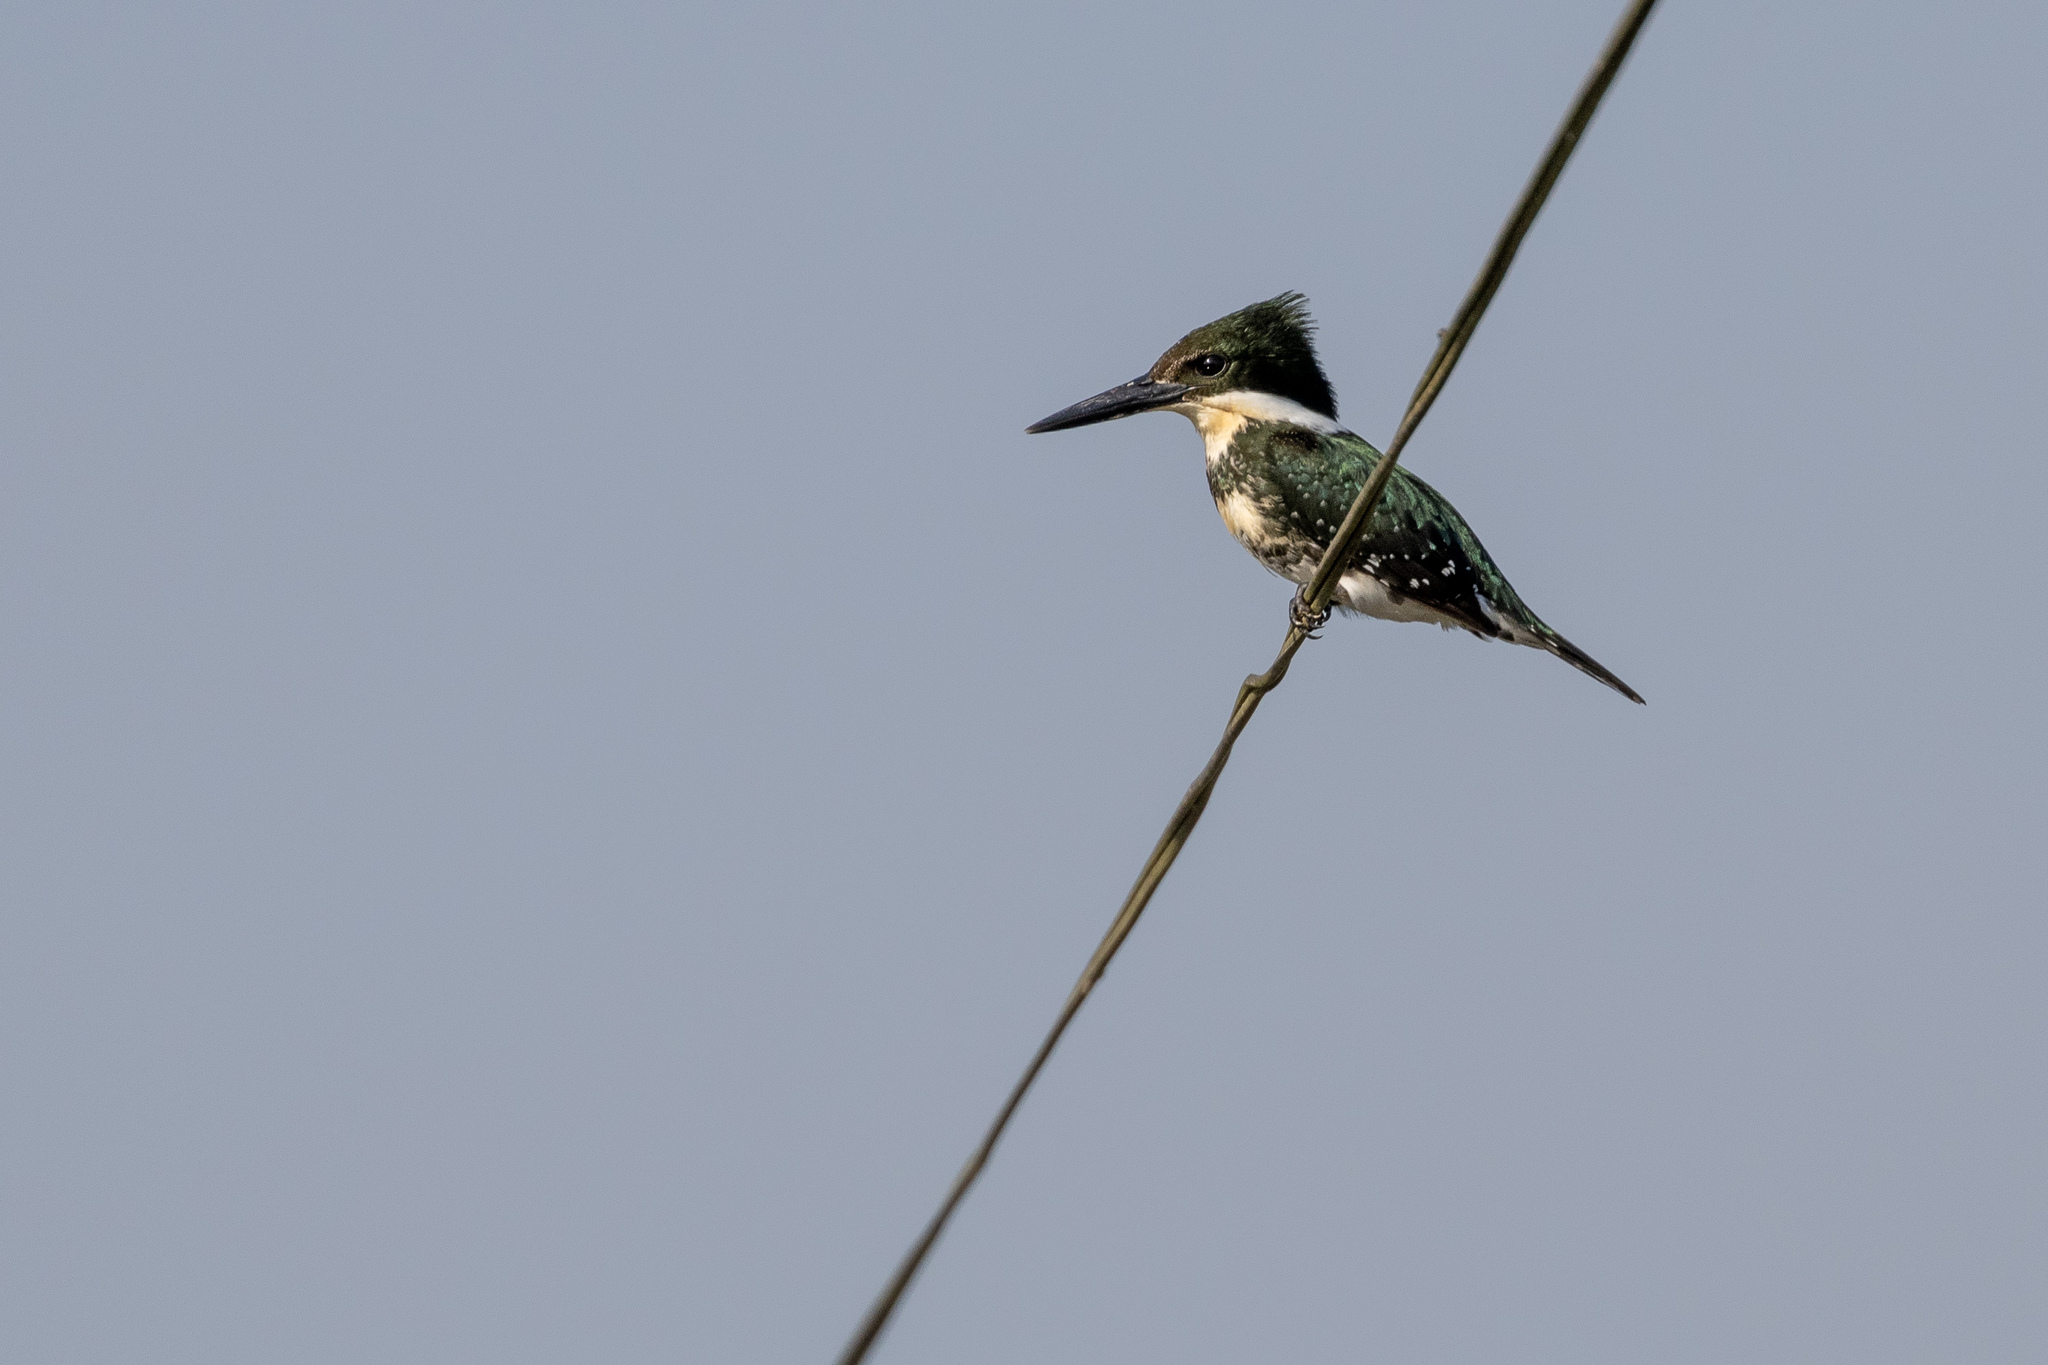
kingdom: Animalia
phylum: Chordata
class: Aves
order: Coraciiformes
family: Alcedinidae
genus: Chloroceryle
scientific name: Chloroceryle americana
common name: Green kingfisher
